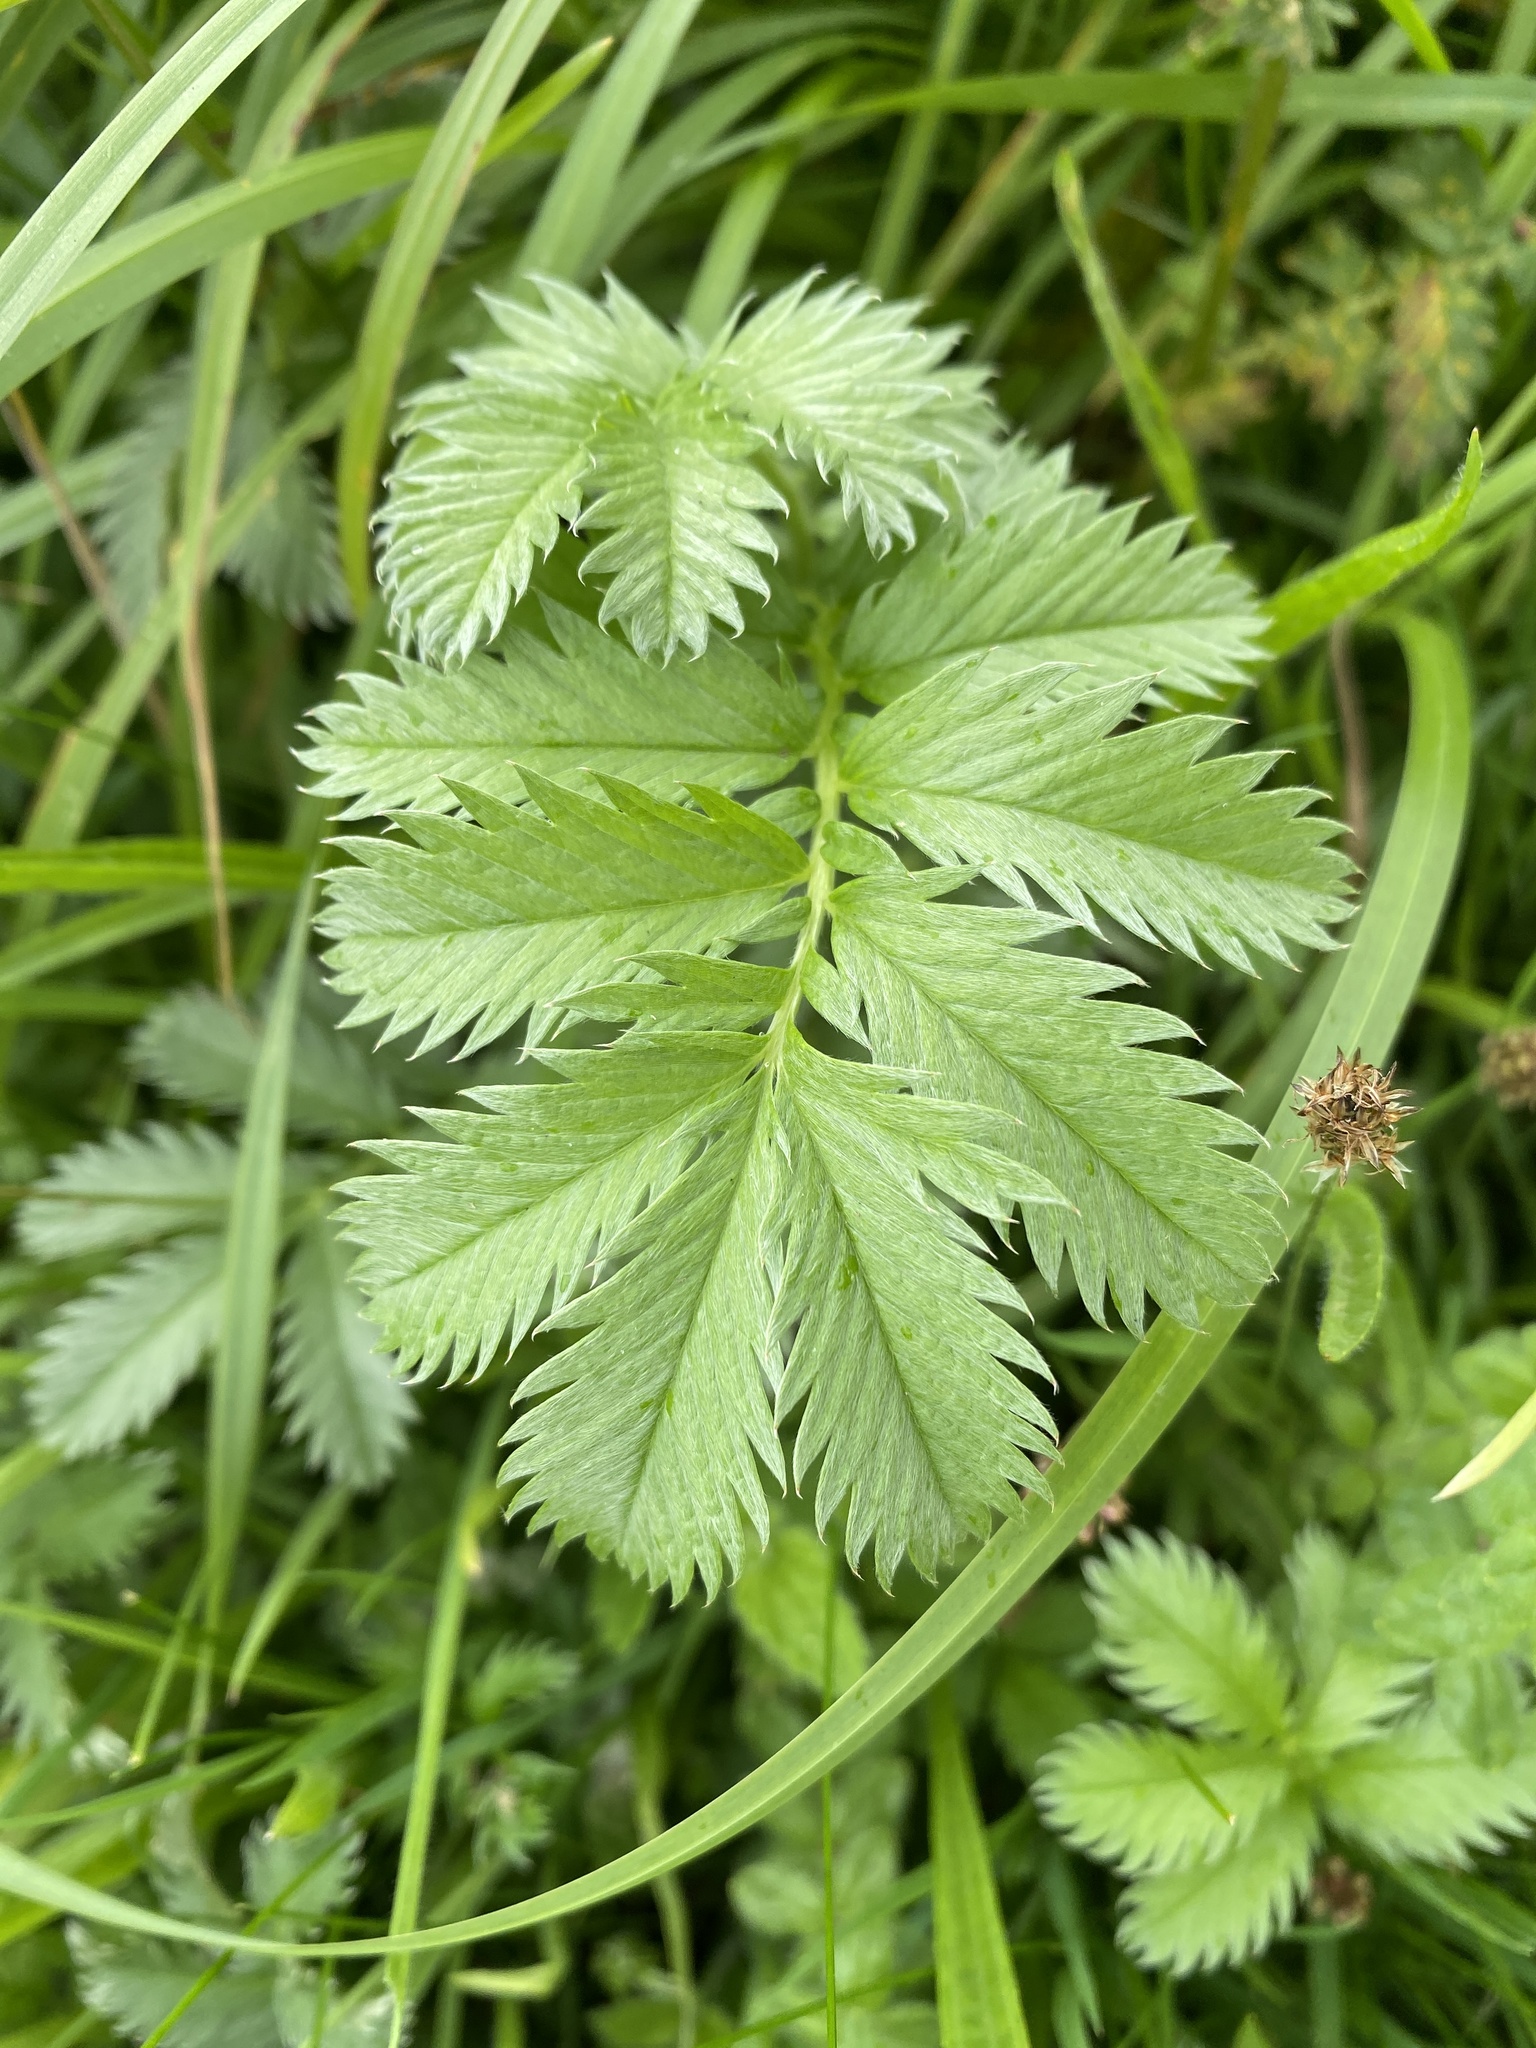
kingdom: Plantae
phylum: Tracheophyta
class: Magnoliopsida
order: Rosales
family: Rosaceae
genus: Argentina
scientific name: Argentina anserina
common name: Common silverweed
